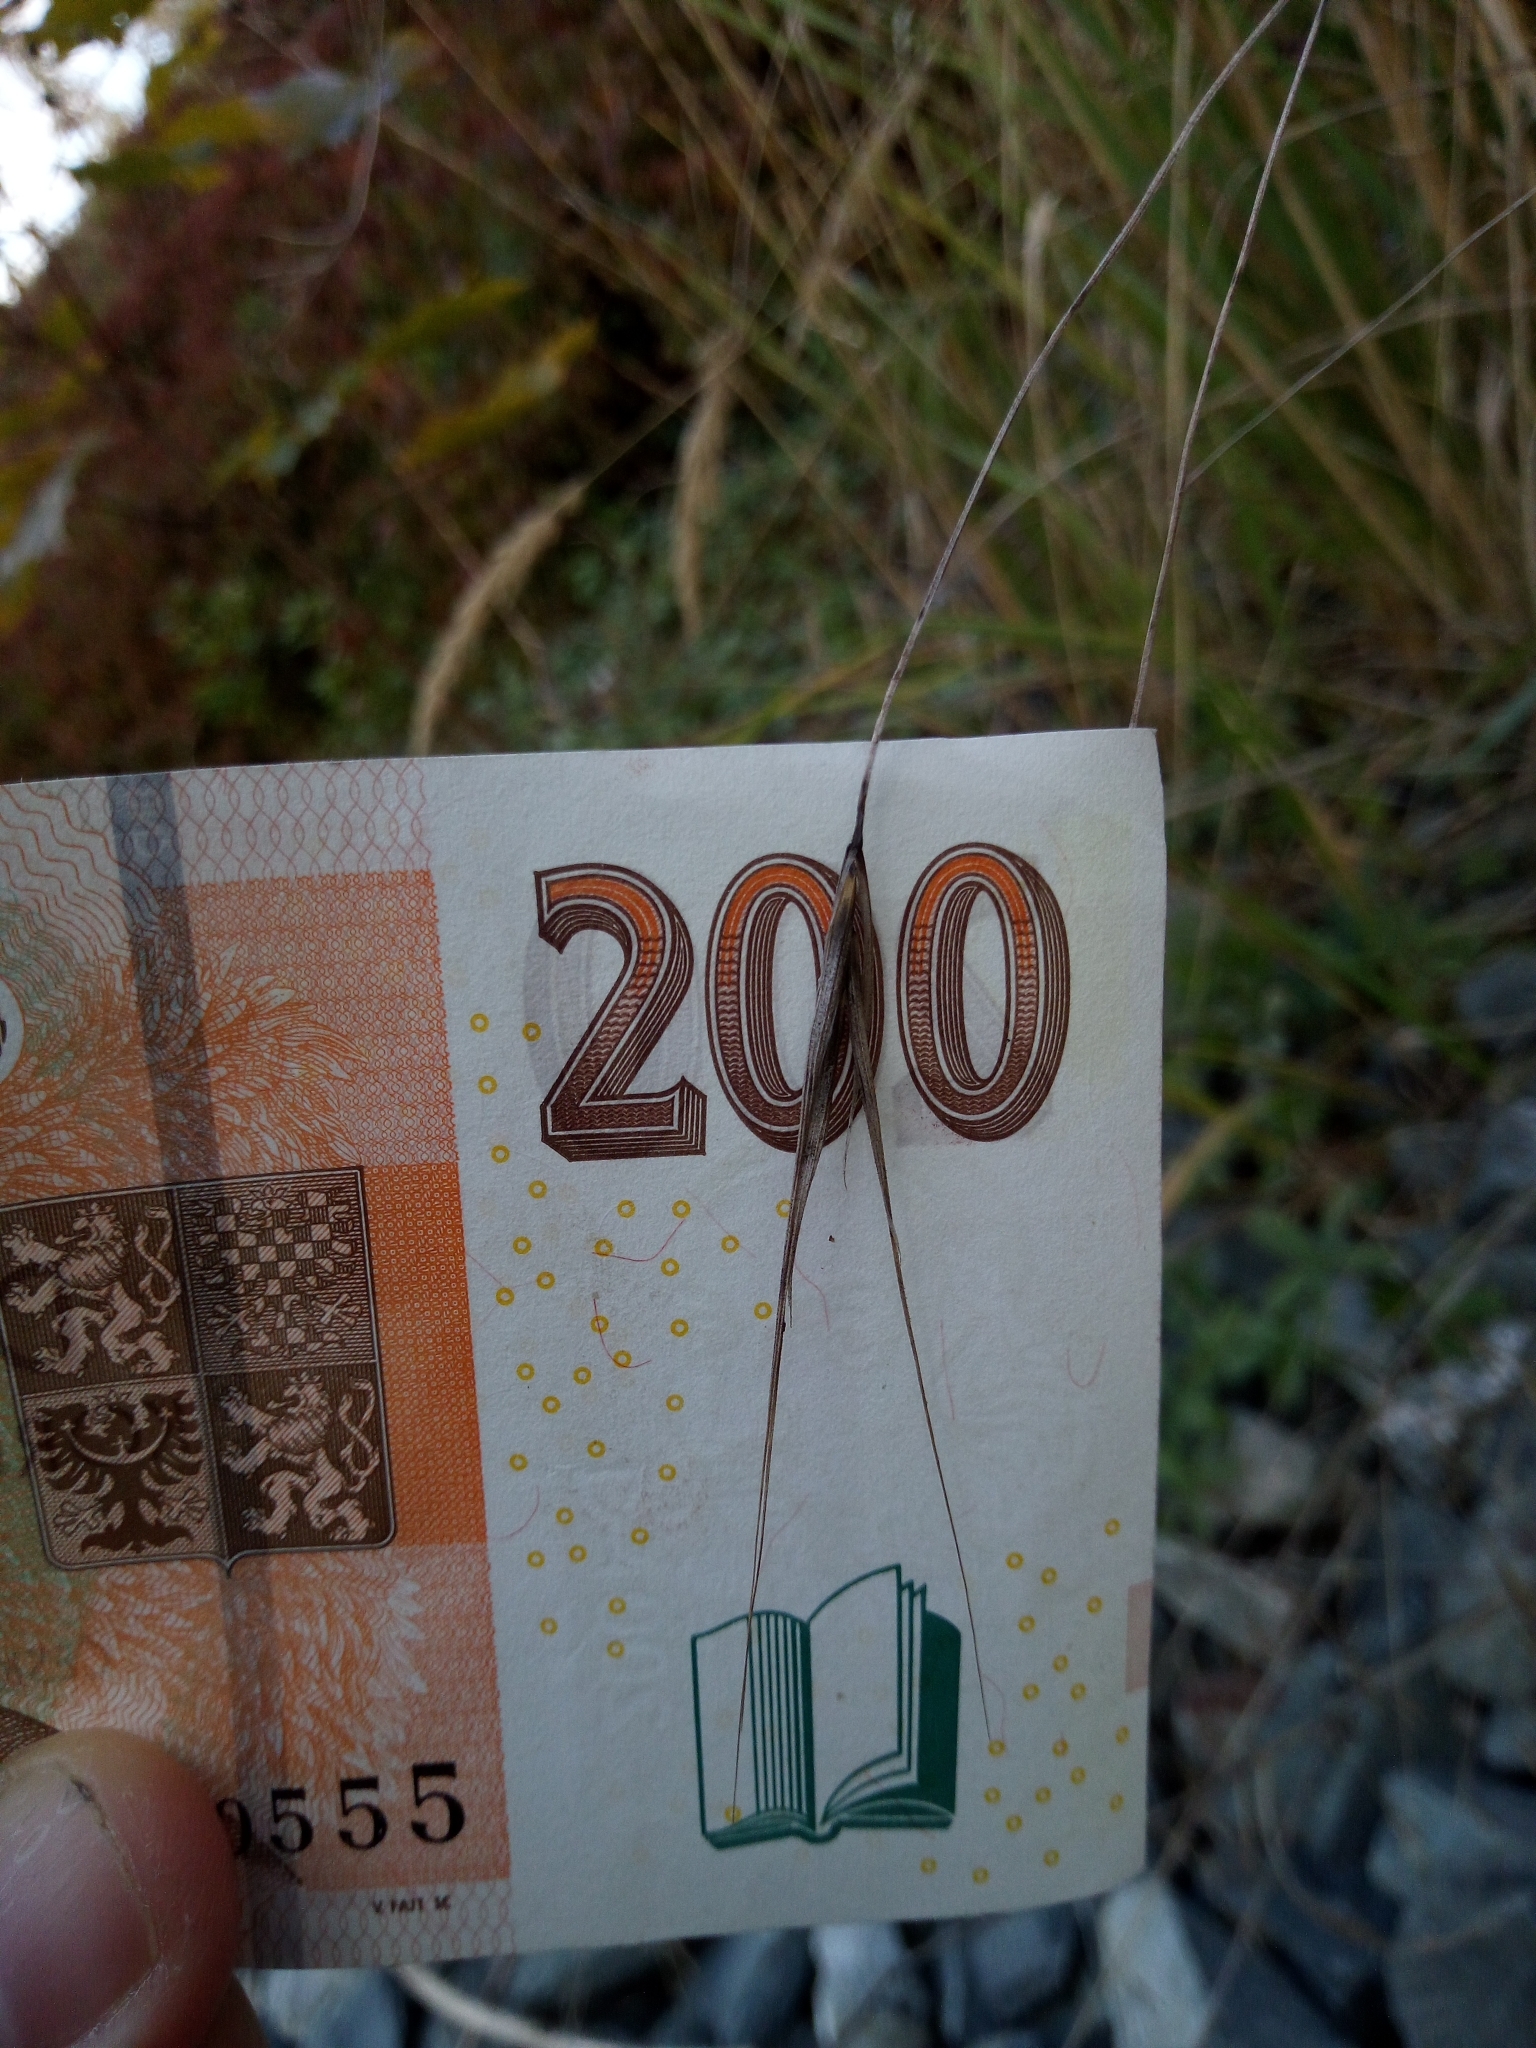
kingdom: Plantae
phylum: Tracheophyta
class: Liliopsida
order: Poales
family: Poaceae
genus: Bromus
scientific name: Bromus sterilis
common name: Poverty brome
